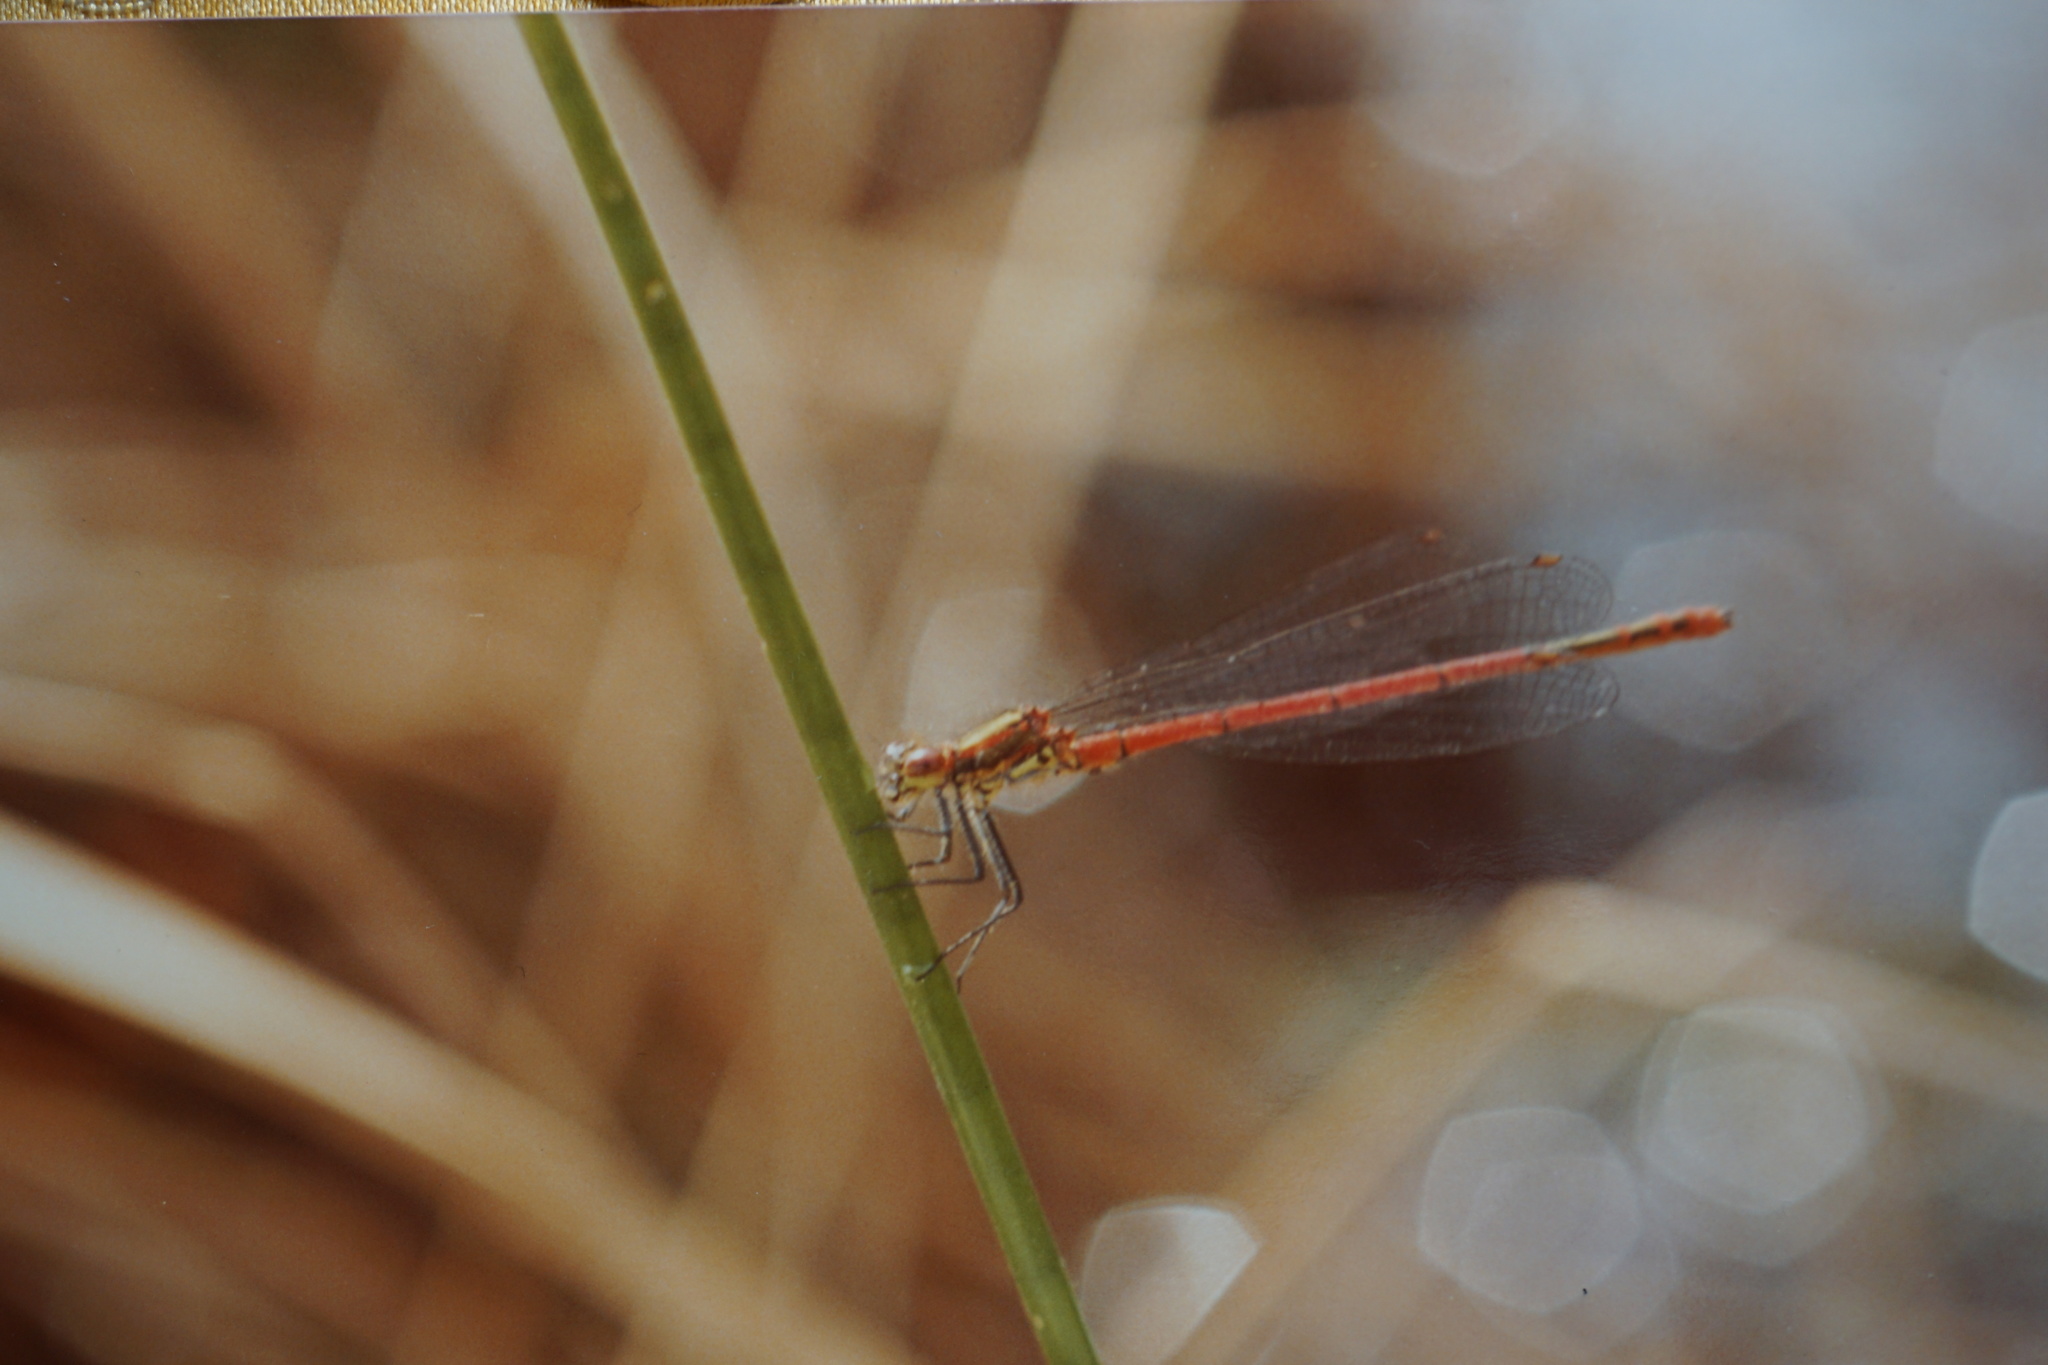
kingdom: Animalia
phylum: Arthropoda
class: Insecta
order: Odonata
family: Coenagrionidae
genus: Pyrrhosoma
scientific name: Pyrrhosoma nymphula
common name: Large red damsel
